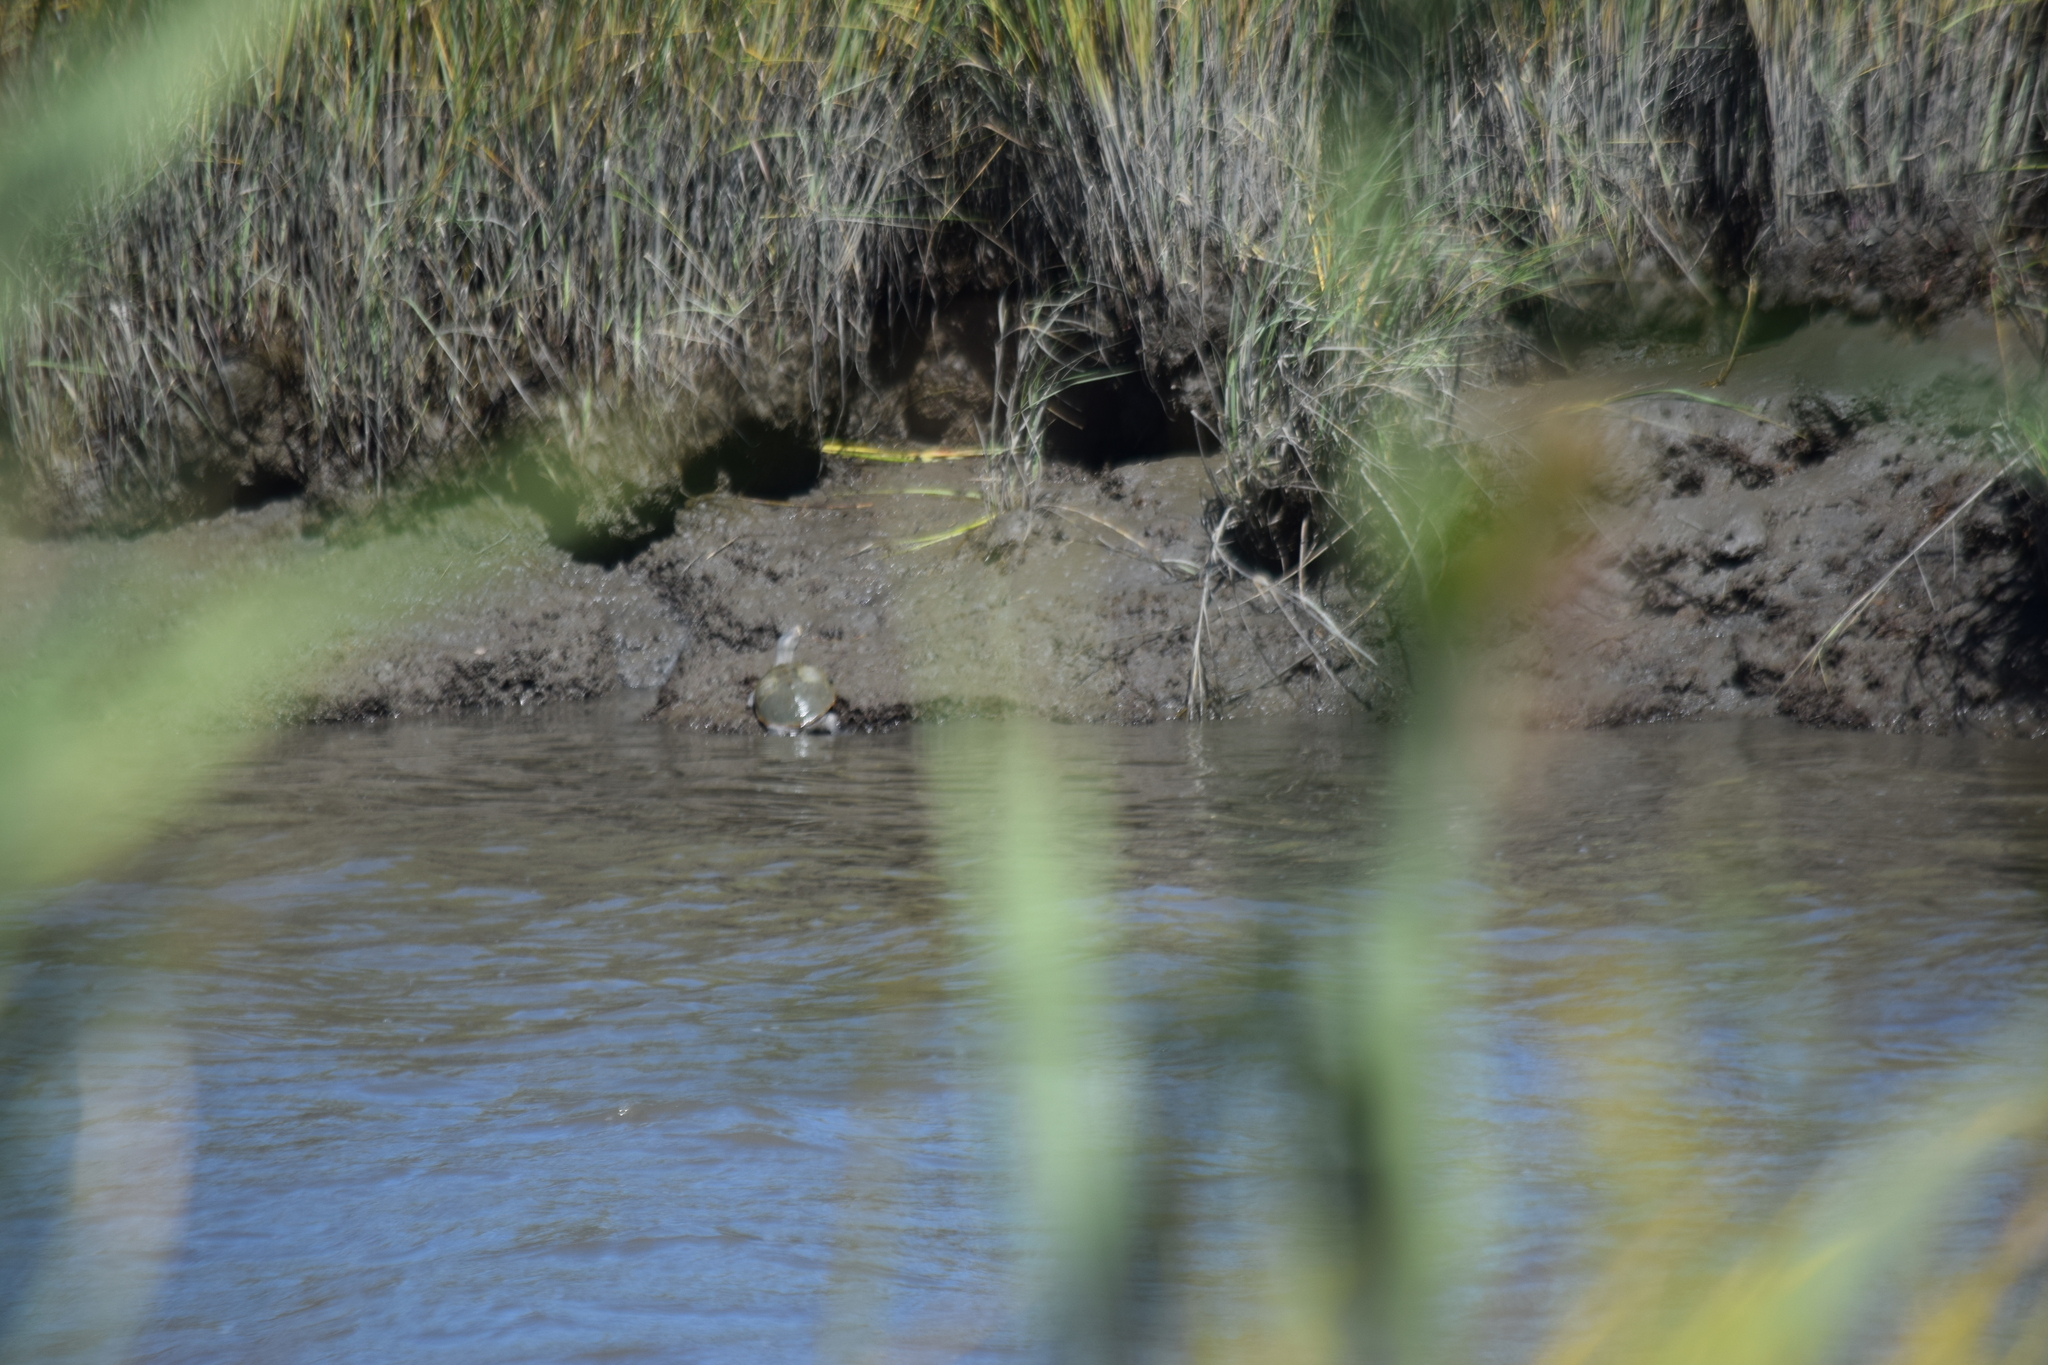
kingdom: Animalia
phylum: Chordata
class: Testudines
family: Emydidae
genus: Malaclemys
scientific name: Malaclemys terrapin
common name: Diamondback terrapin
